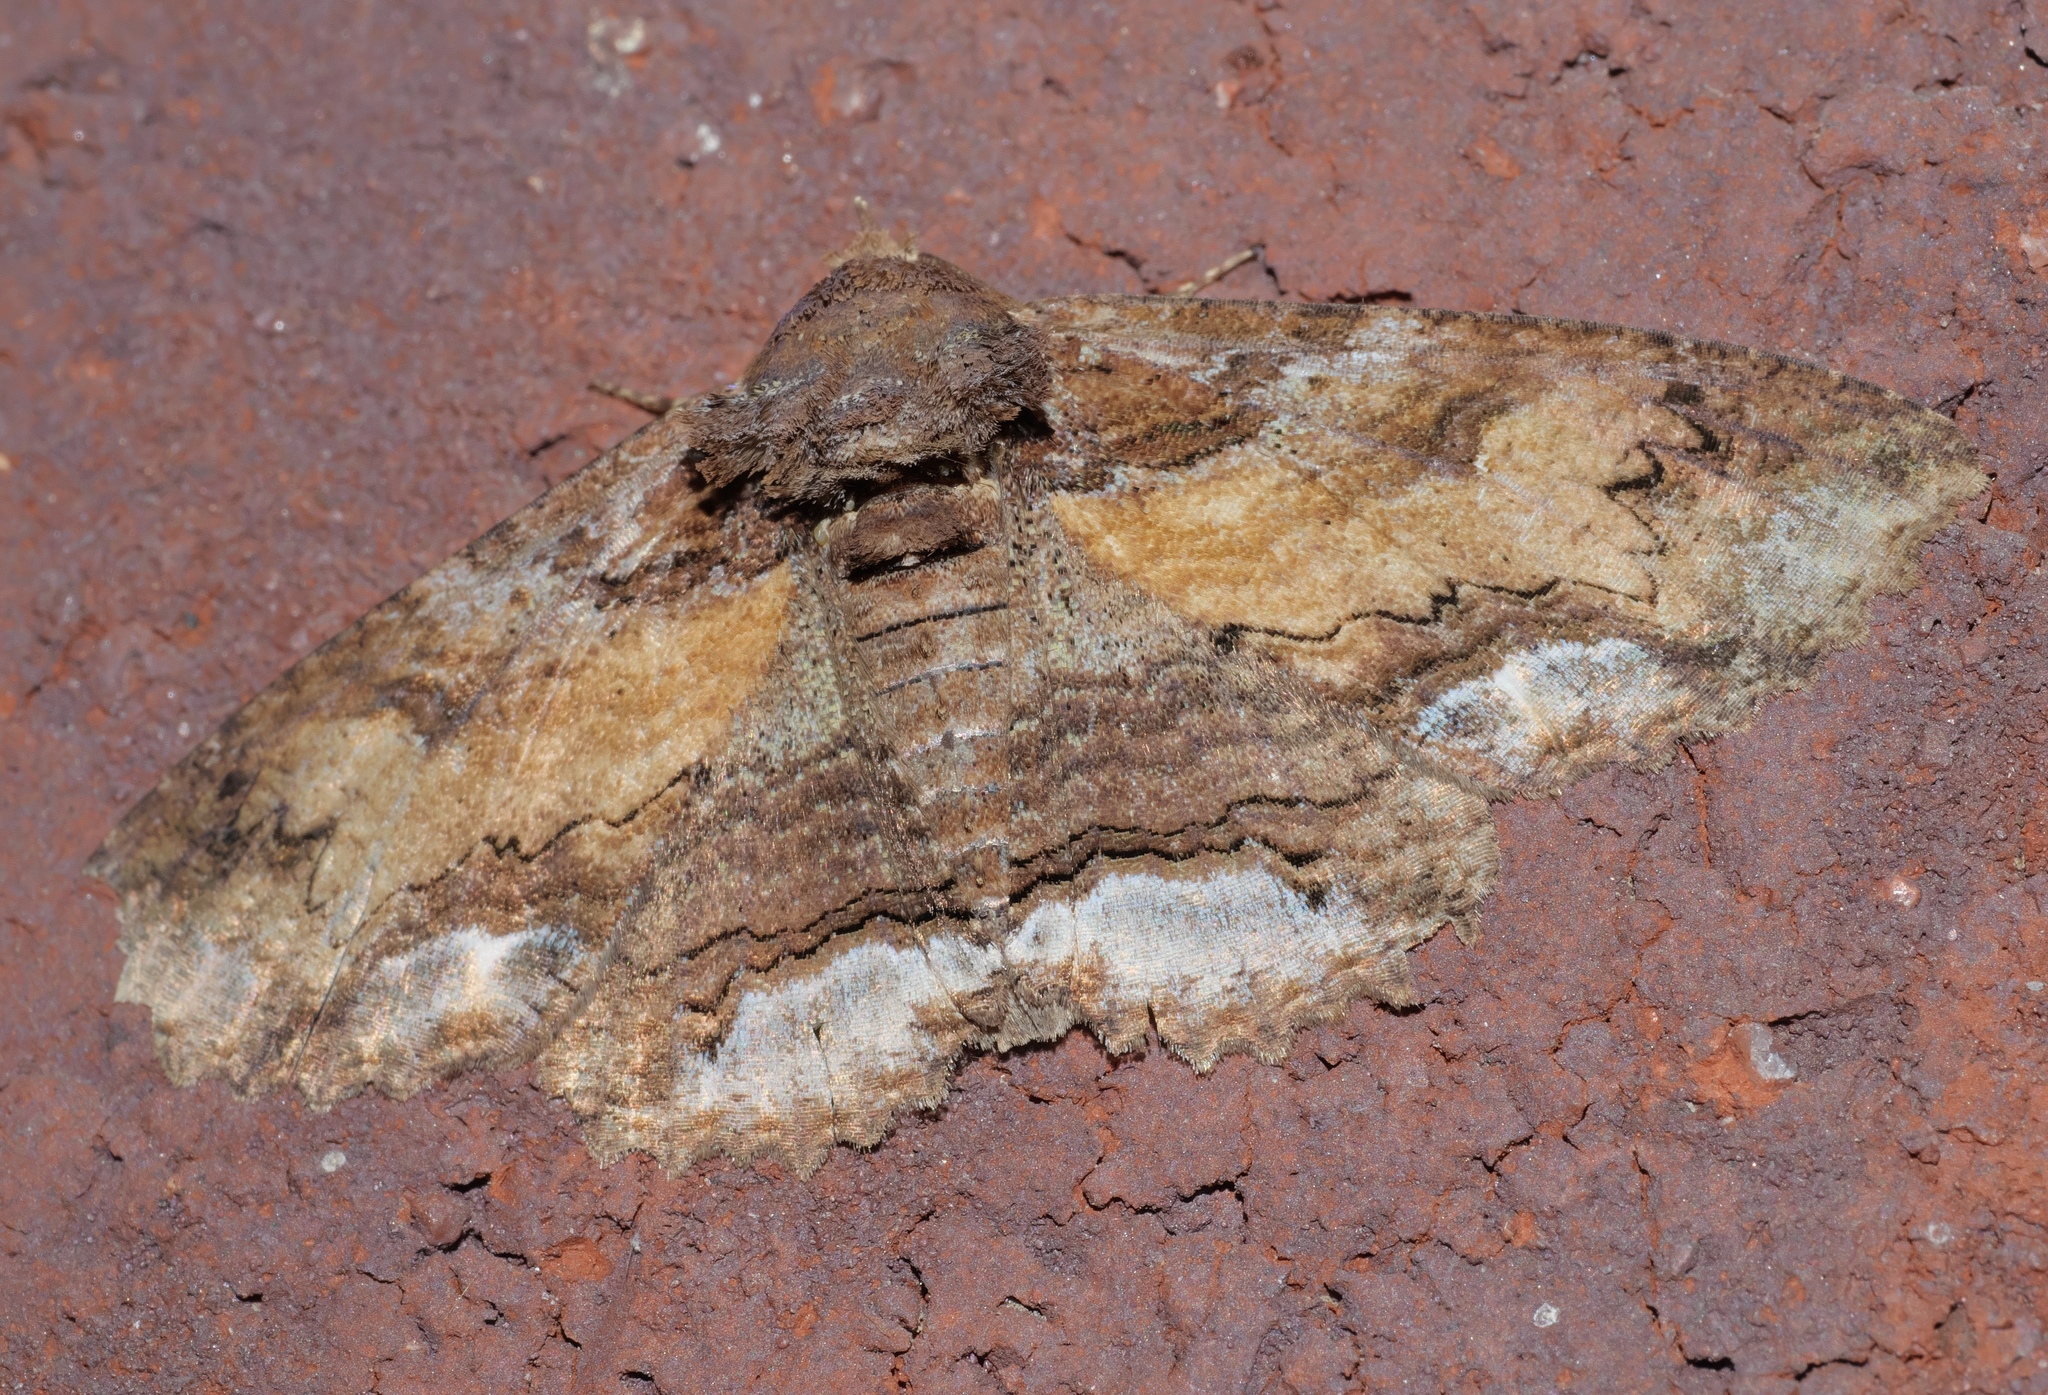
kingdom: Animalia
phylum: Arthropoda
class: Insecta
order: Lepidoptera
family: Erebidae
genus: Zale
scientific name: Zale lunata
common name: Lunate zale moth
